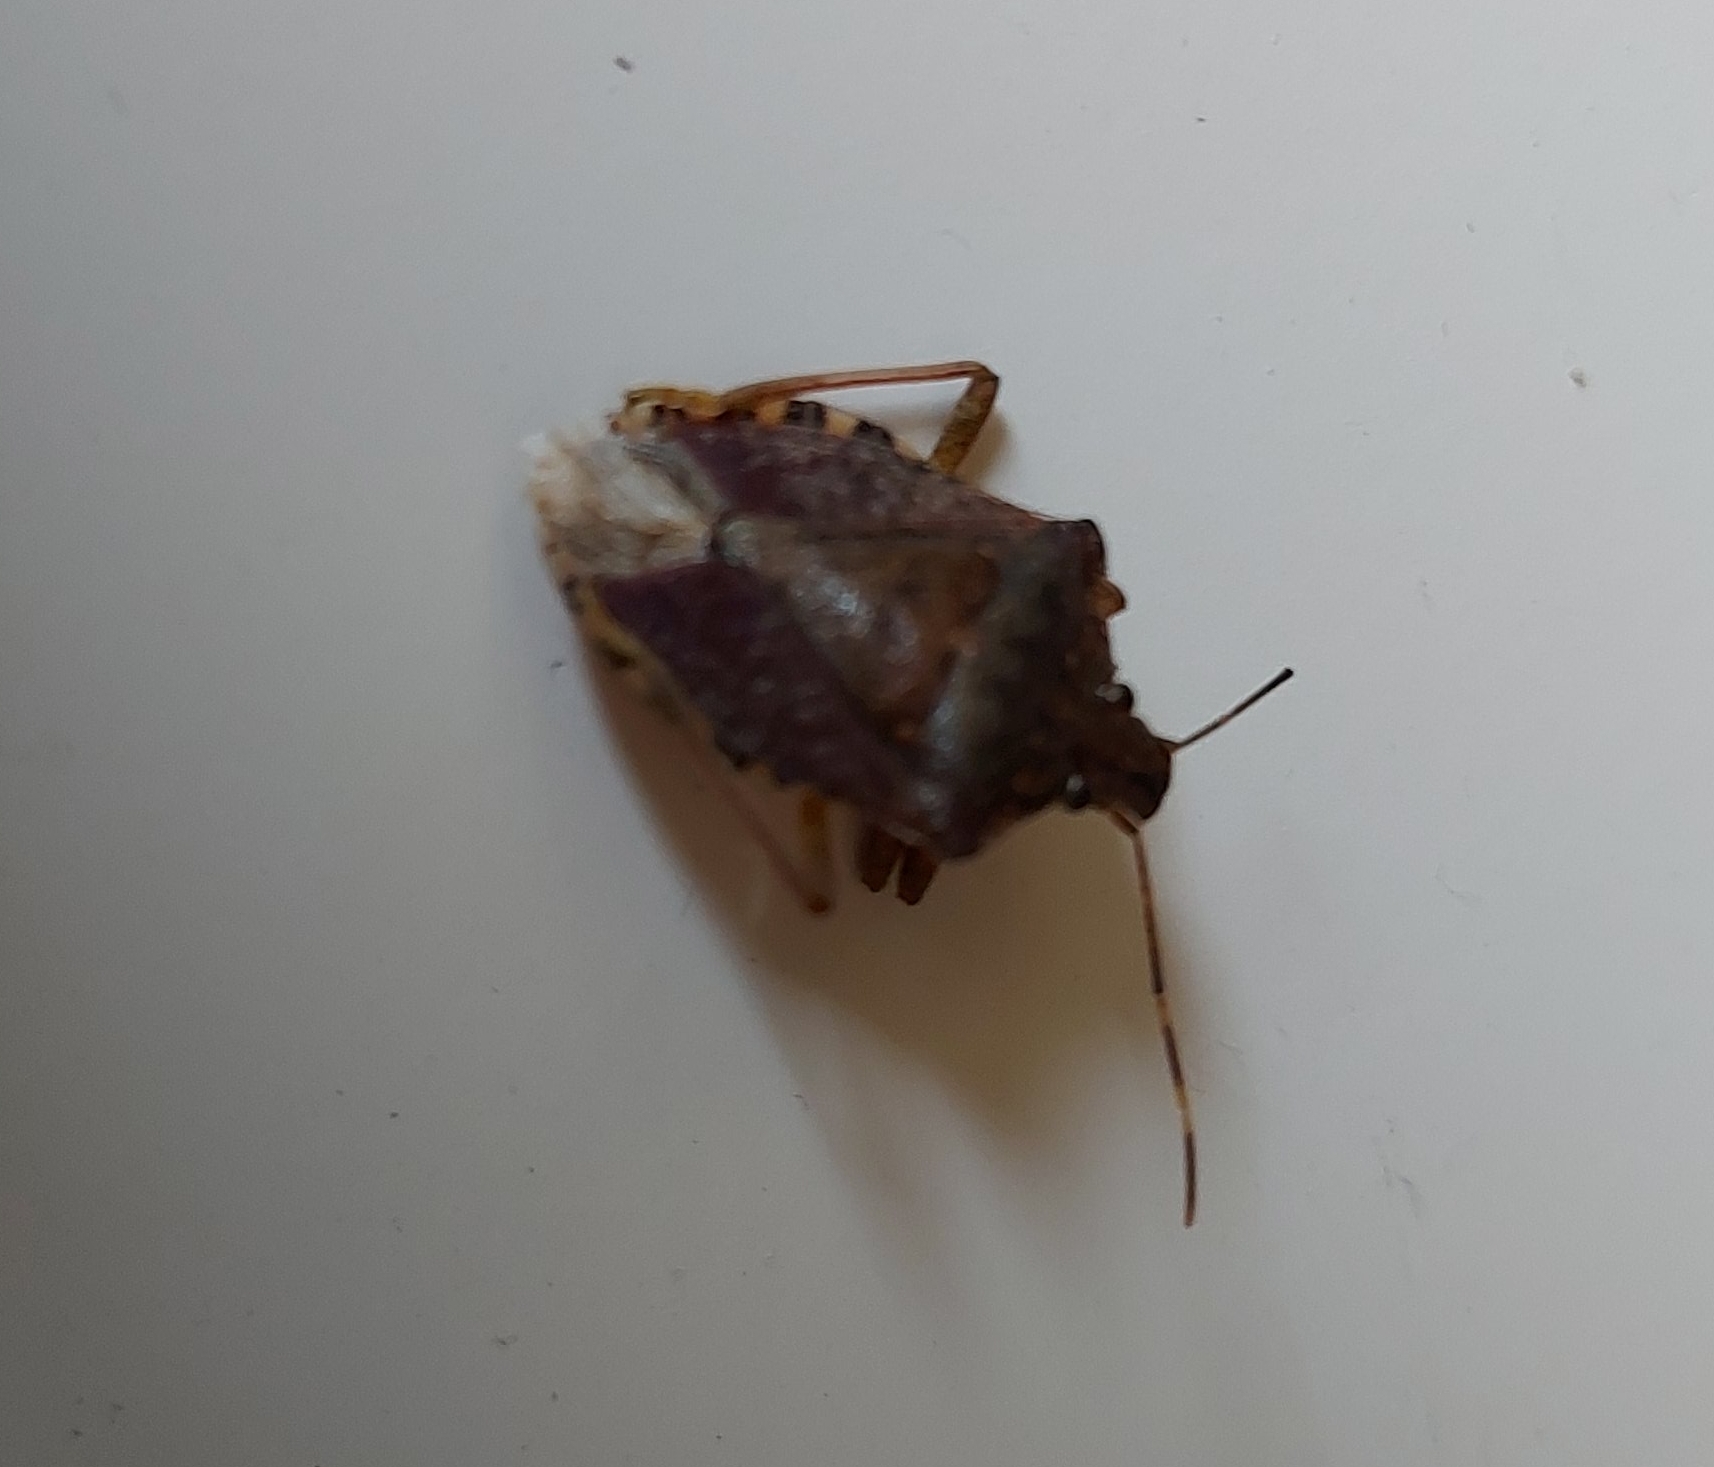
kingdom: Animalia
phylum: Arthropoda
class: Insecta
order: Hemiptera
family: Pentatomidae
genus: Halyomorpha
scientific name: Halyomorpha halys
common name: Brown marmorated stink bug
